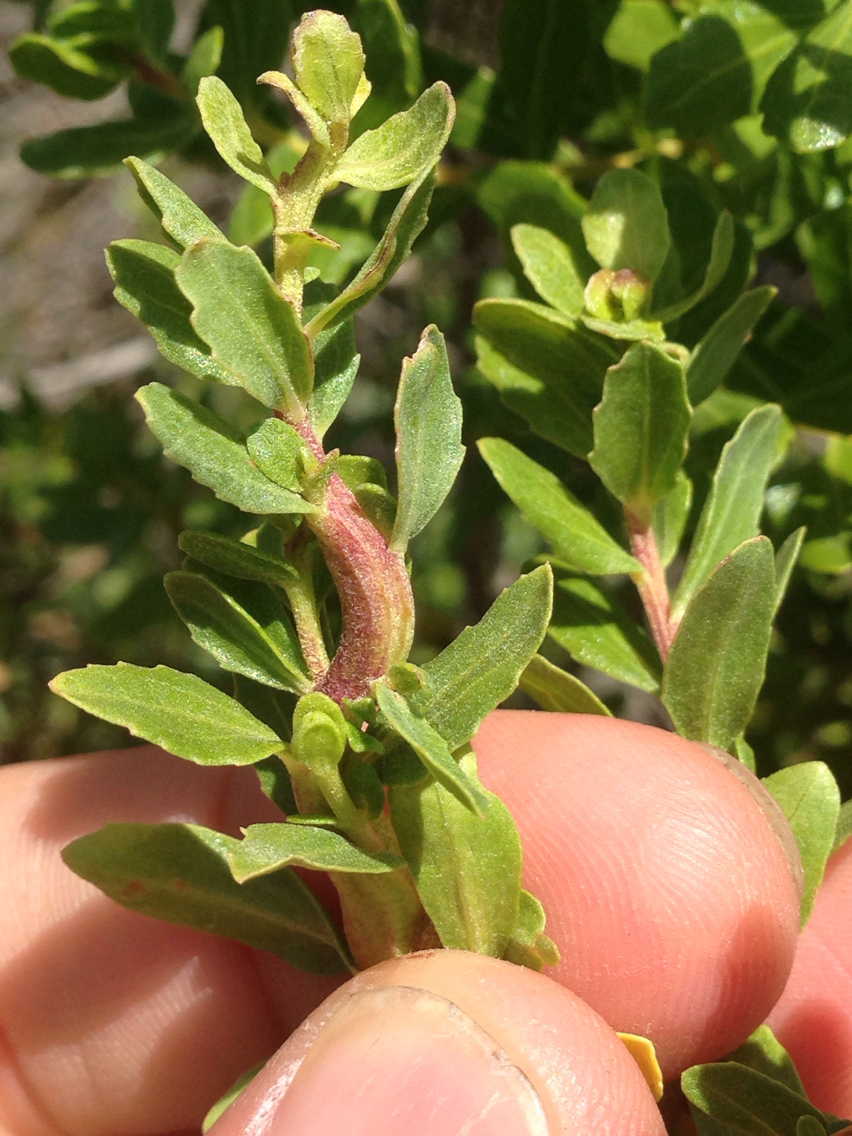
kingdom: Animalia
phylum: Arthropoda
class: Insecta
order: Diptera
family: Cecidomyiidae
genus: Rhopalomyia
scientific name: Rhopalomyia baccharis
